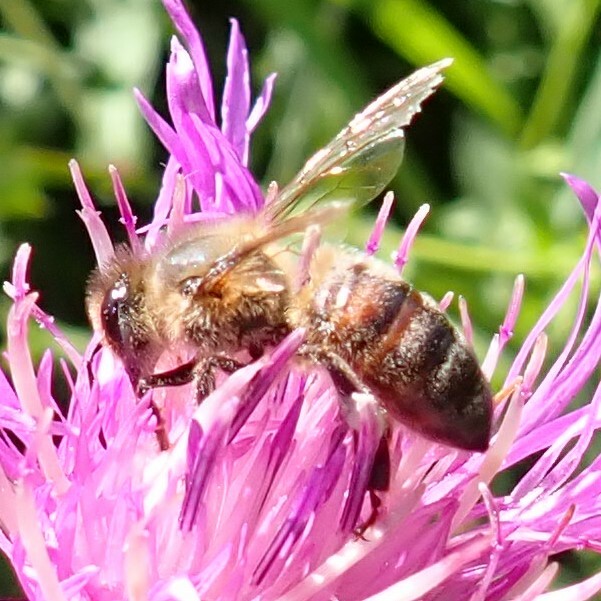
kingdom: Animalia
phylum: Arthropoda
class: Insecta
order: Hymenoptera
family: Apidae
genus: Apis
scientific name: Apis mellifera
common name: Honey bee
